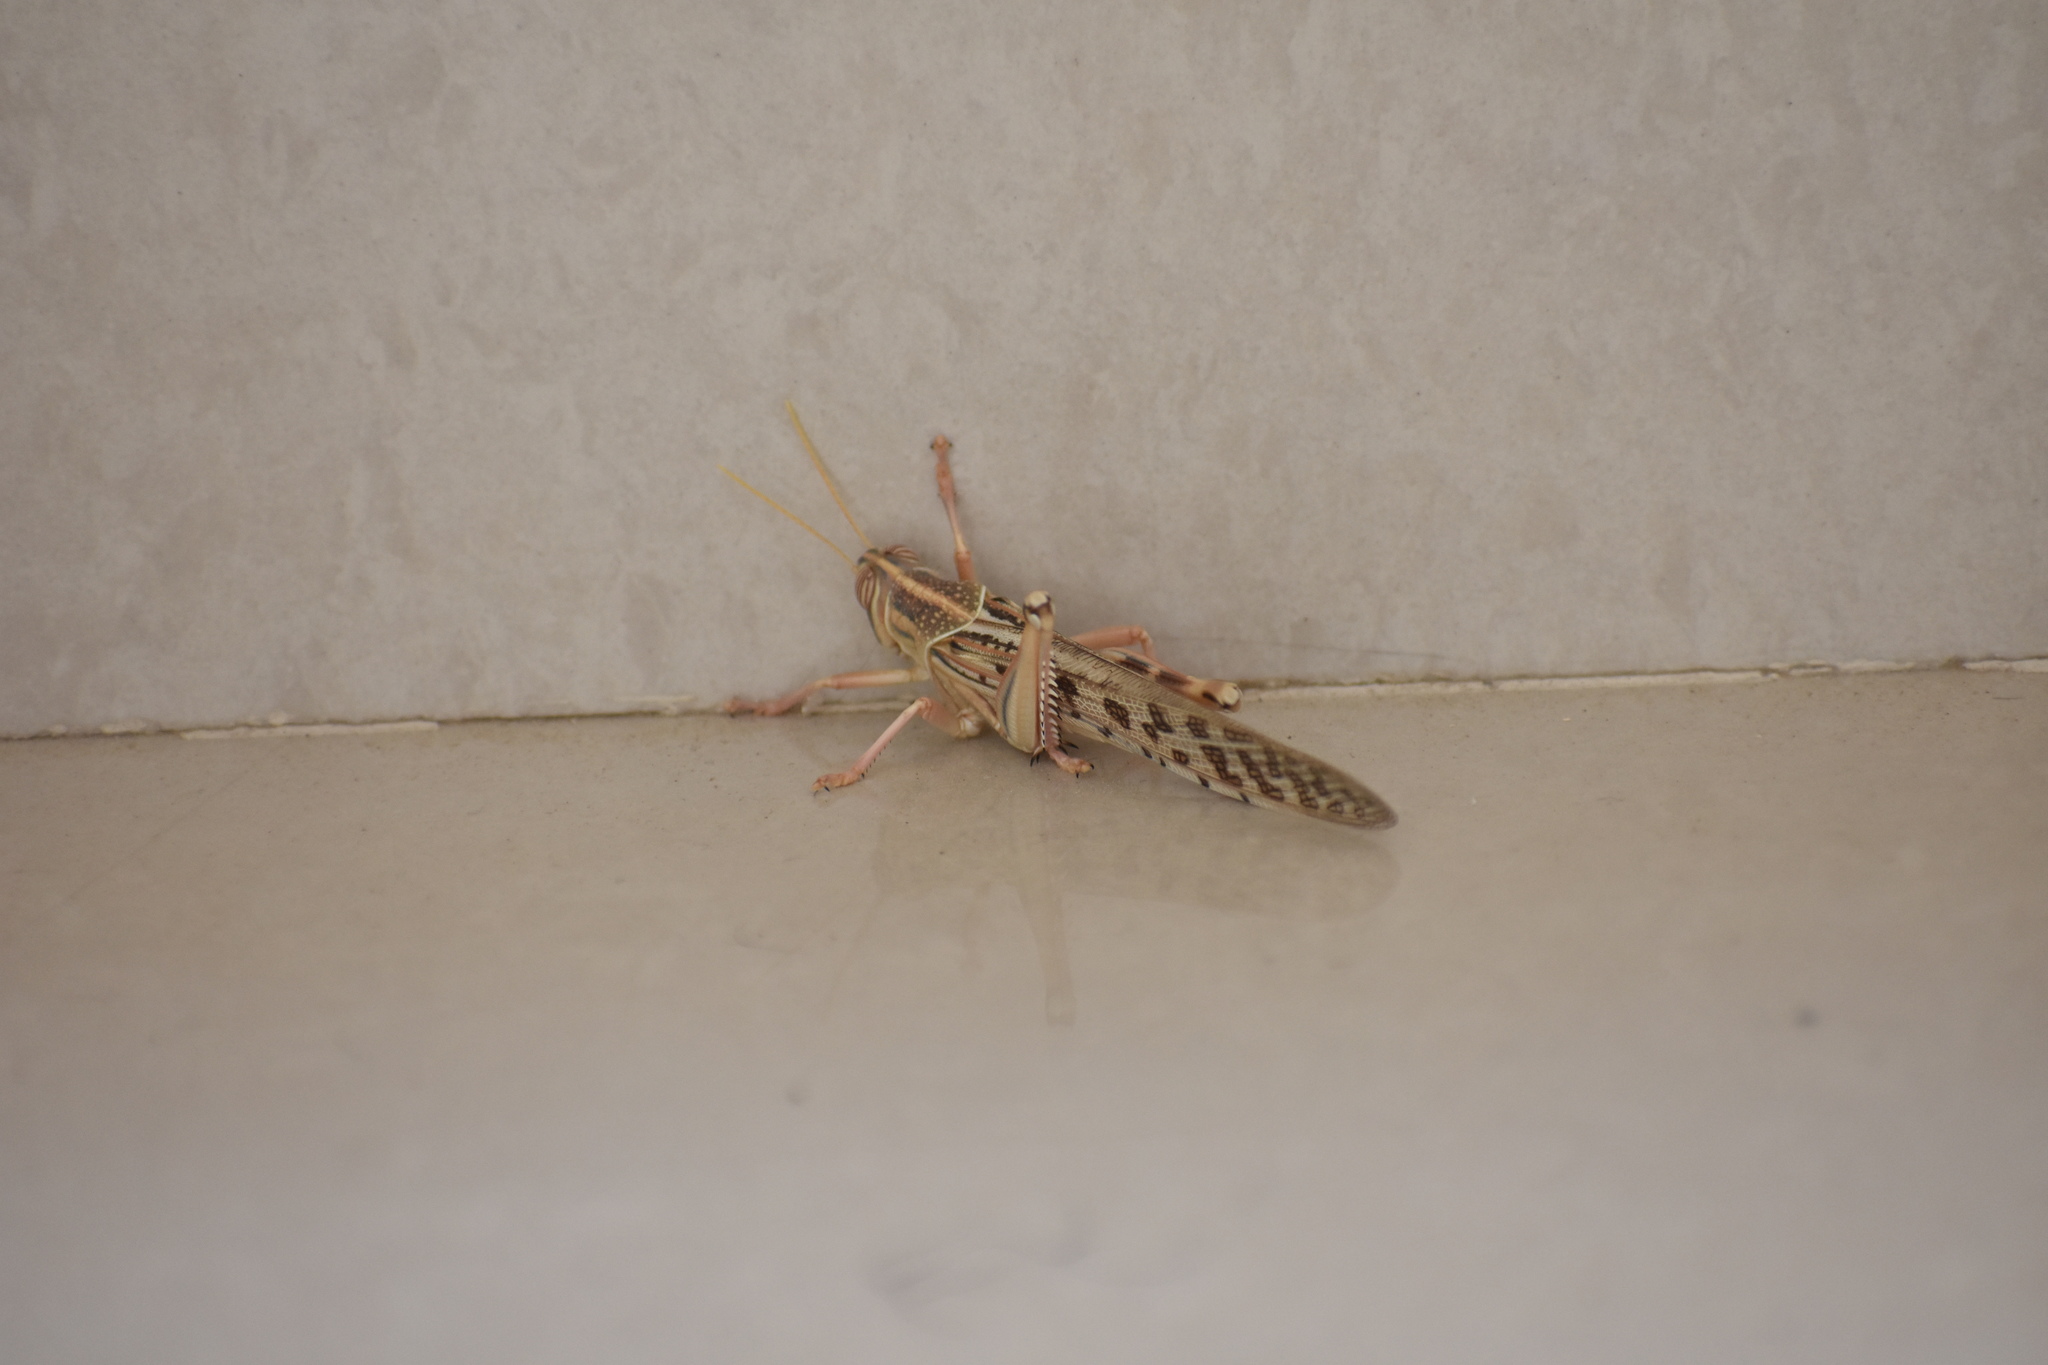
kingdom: Animalia
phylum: Arthropoda
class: Insecta
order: Orthoptera
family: Acrididae
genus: Schistocerca
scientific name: Schistocerca gregaria
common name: Desert locust
